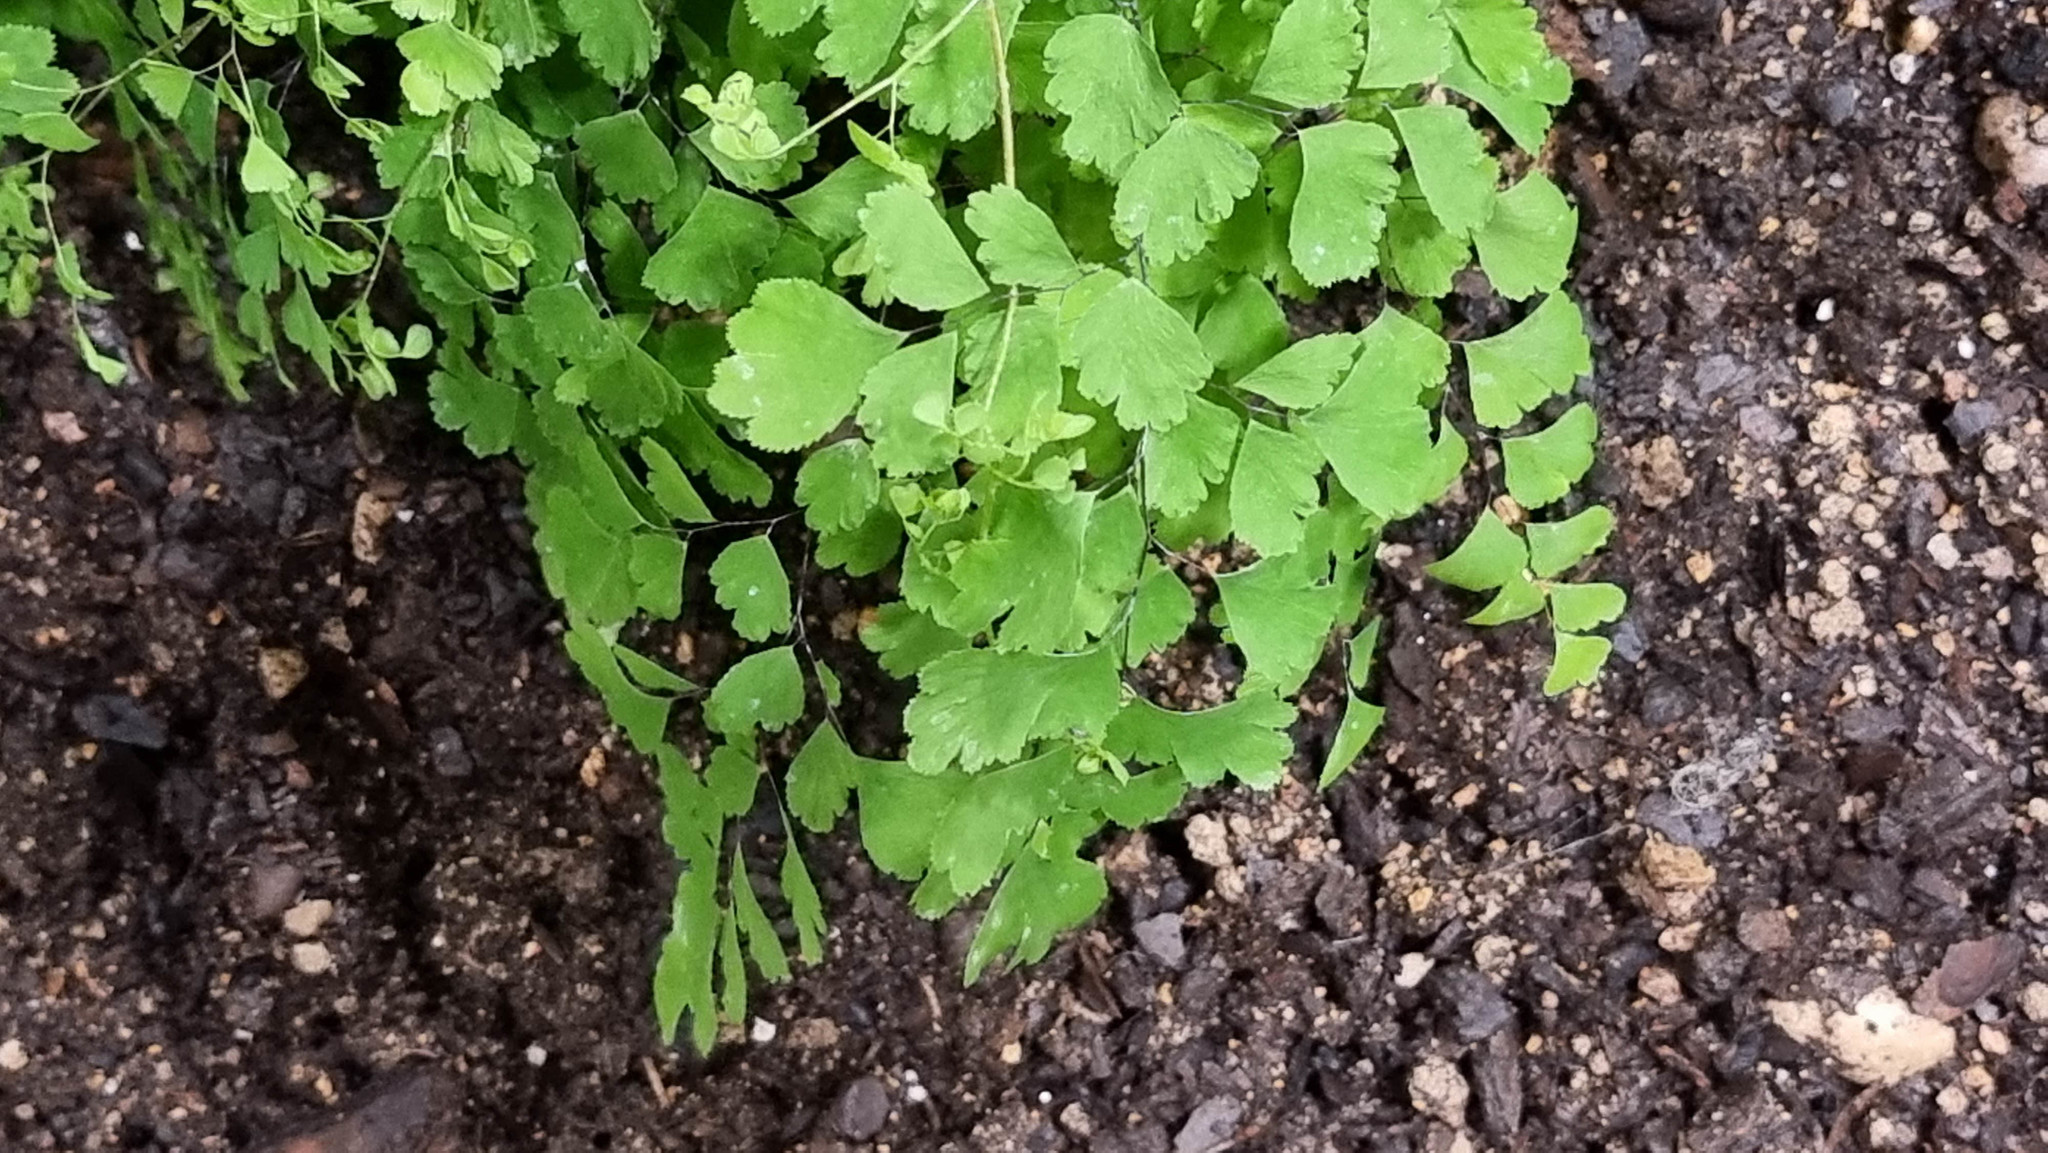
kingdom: Plantae
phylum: Tracheophyta
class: Polypodiopsida
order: Polypodiales
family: Pteridaceae
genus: Adiantum
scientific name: Adiantum capillus-veneris
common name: Maidenhair fern
